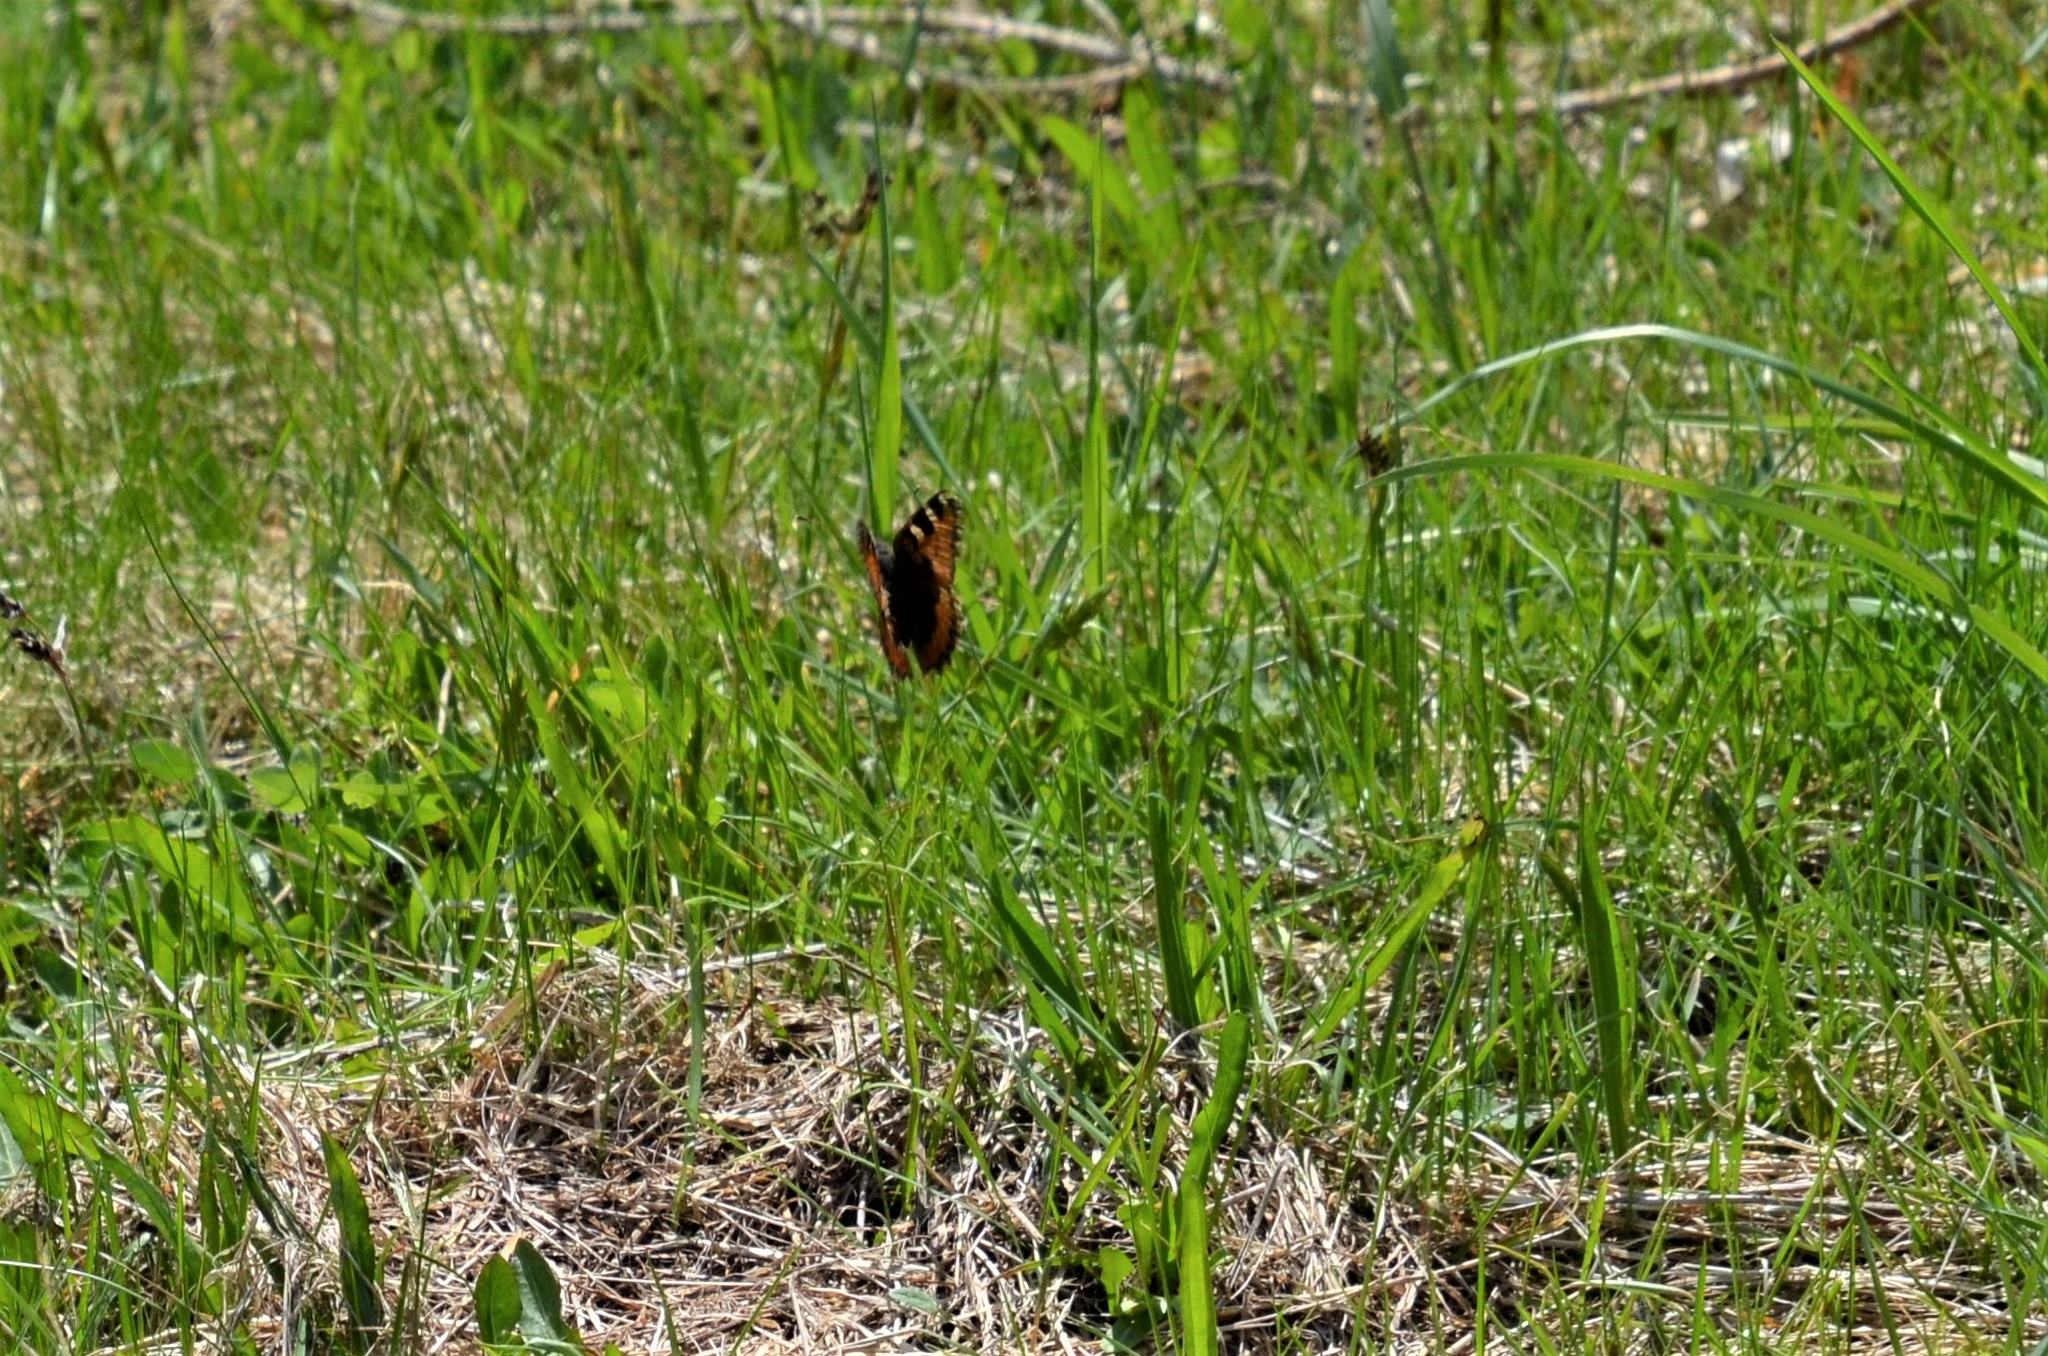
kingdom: Animalia
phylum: Arthropoda
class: Insecta
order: Lepidoptera
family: Nymphalidae
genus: Aglais
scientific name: Aglais urticae
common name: Small tortoiseshell
